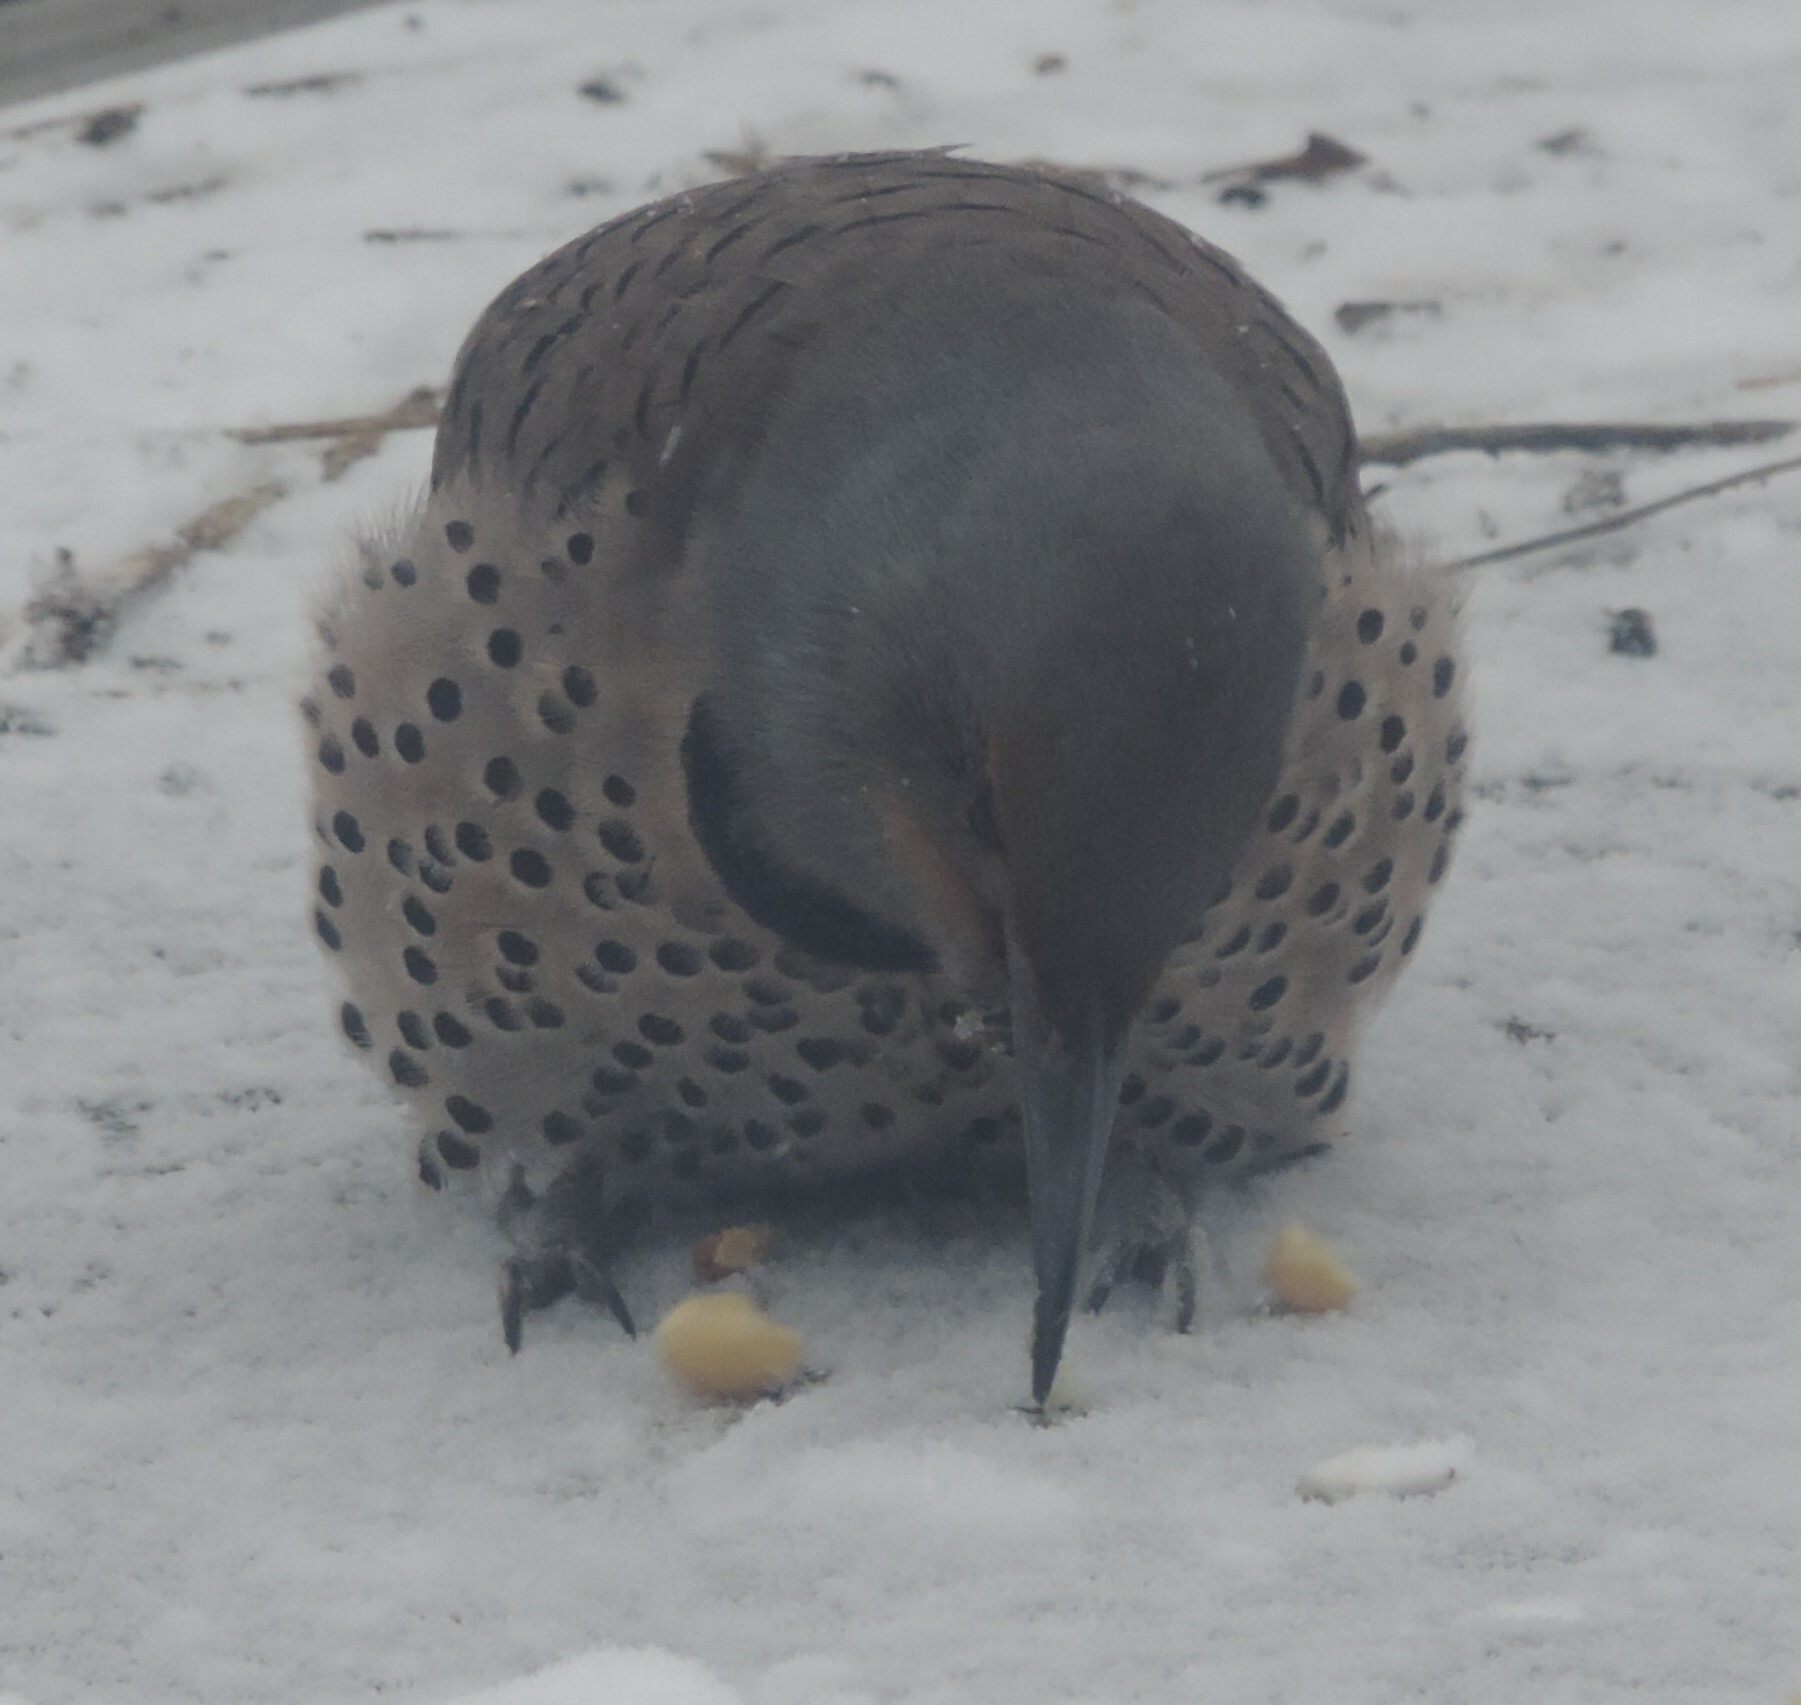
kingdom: Animalia
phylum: Chordata
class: Aves
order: Piciformes
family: Picidae
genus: Colaptes
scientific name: Colaptes auratus
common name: Northern flicker
